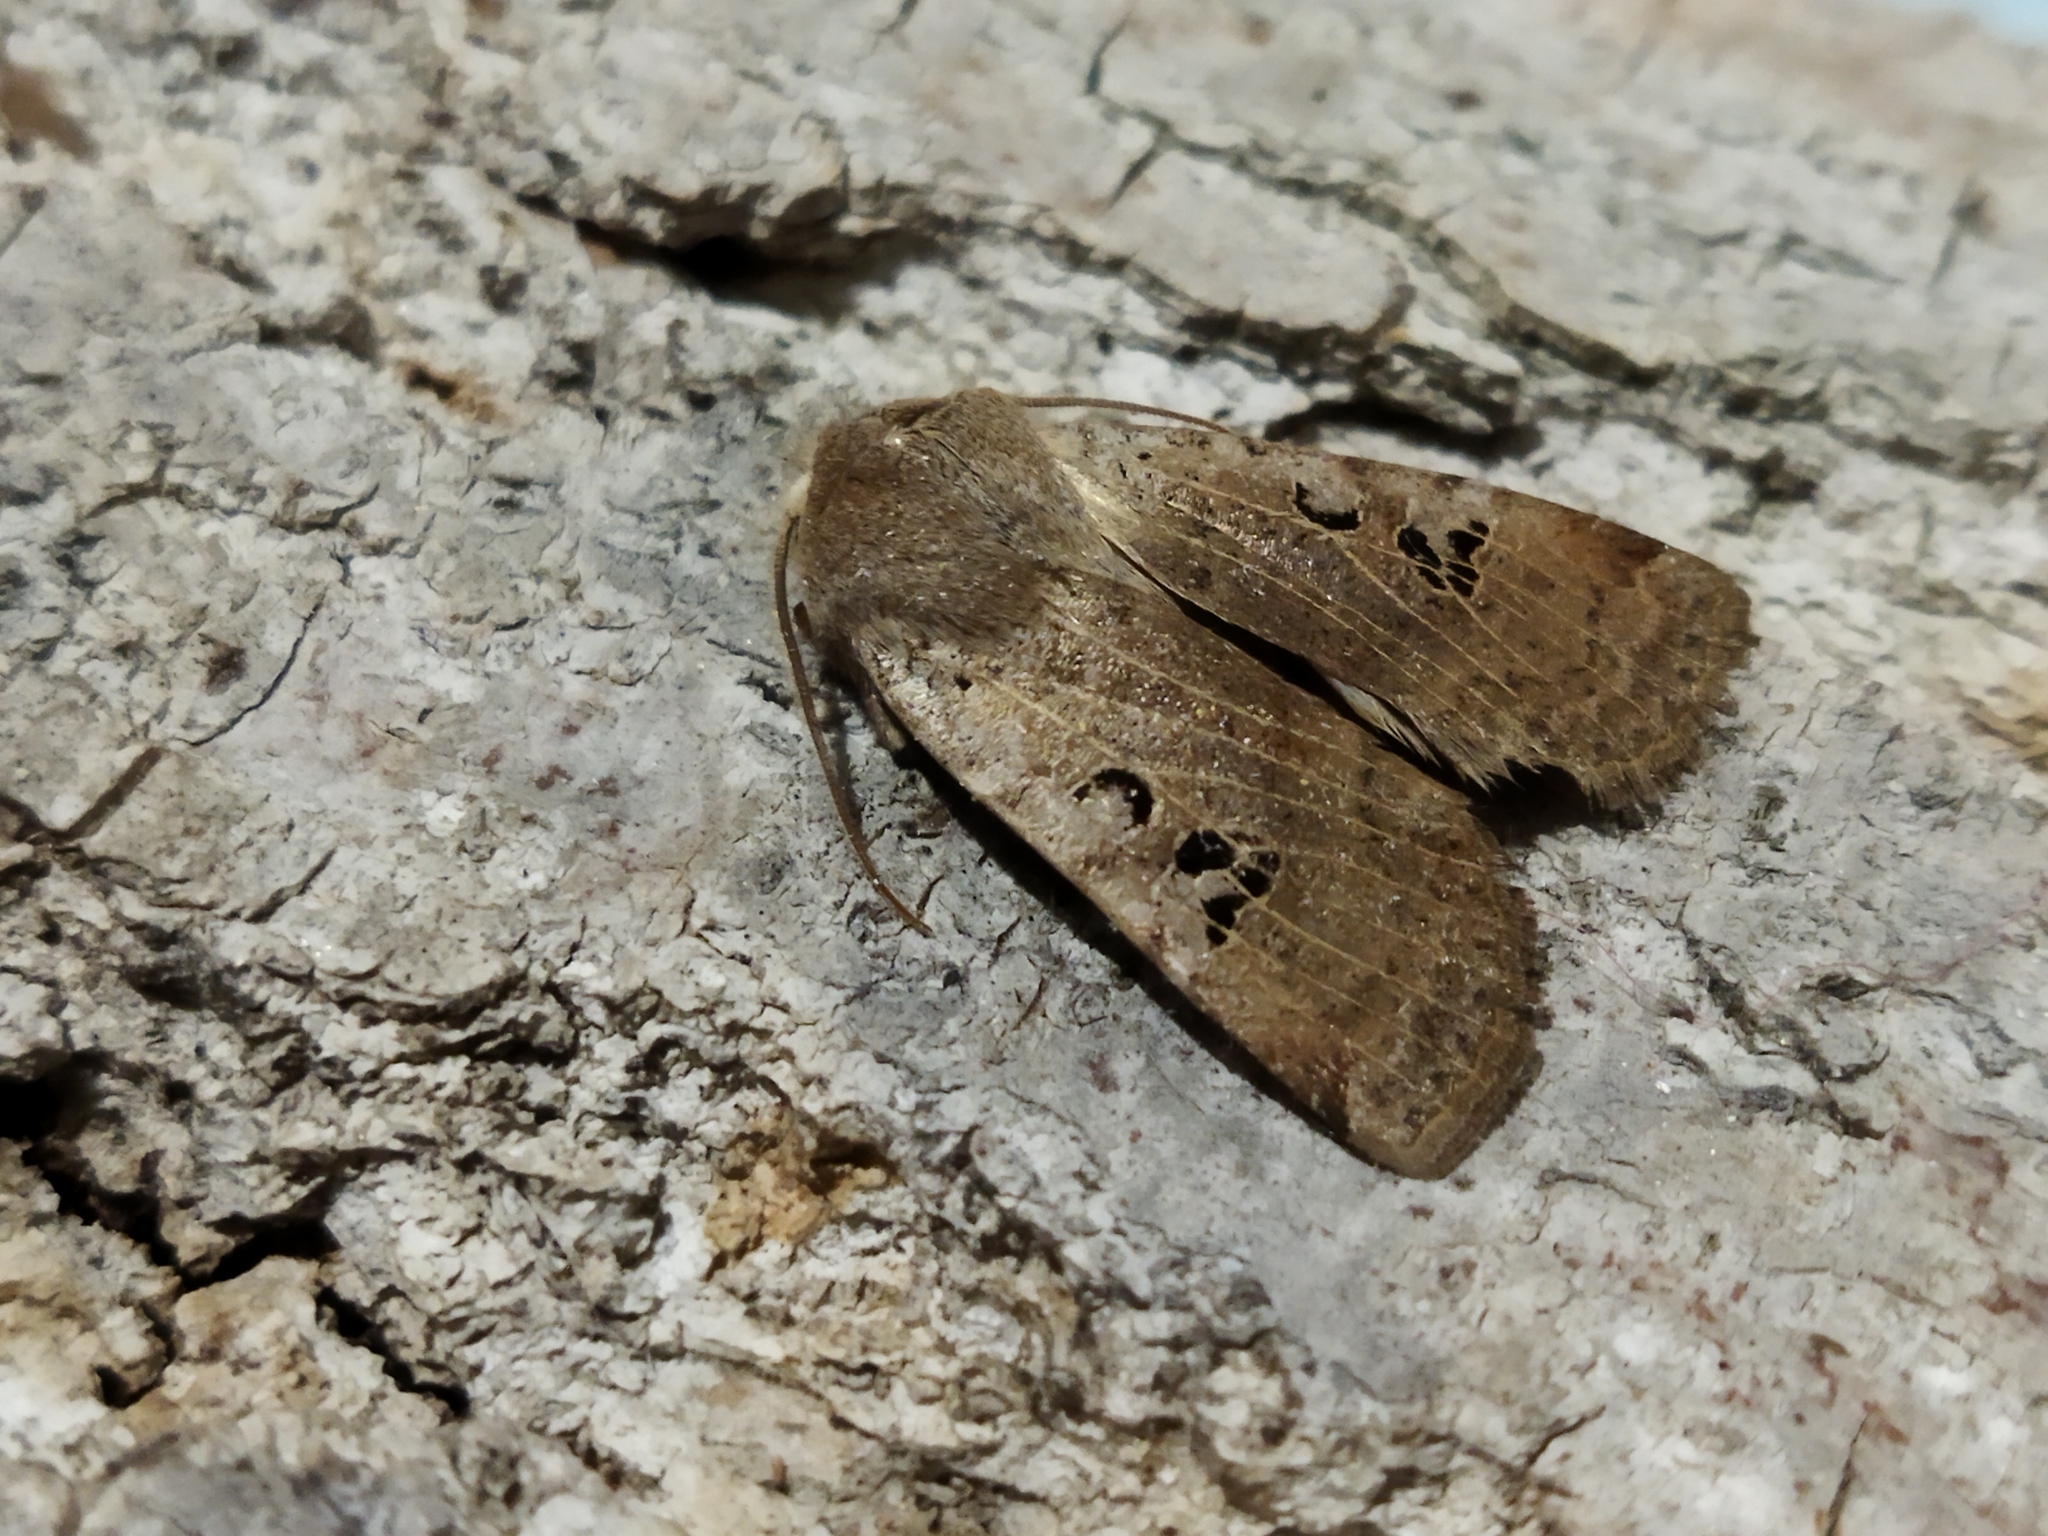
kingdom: Animalia
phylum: Arthropoda
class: Insecta
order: Lepidoptera
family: Noctuidae
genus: Conistra
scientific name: Conistra rubiginosa
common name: Black-spotted chestnut
